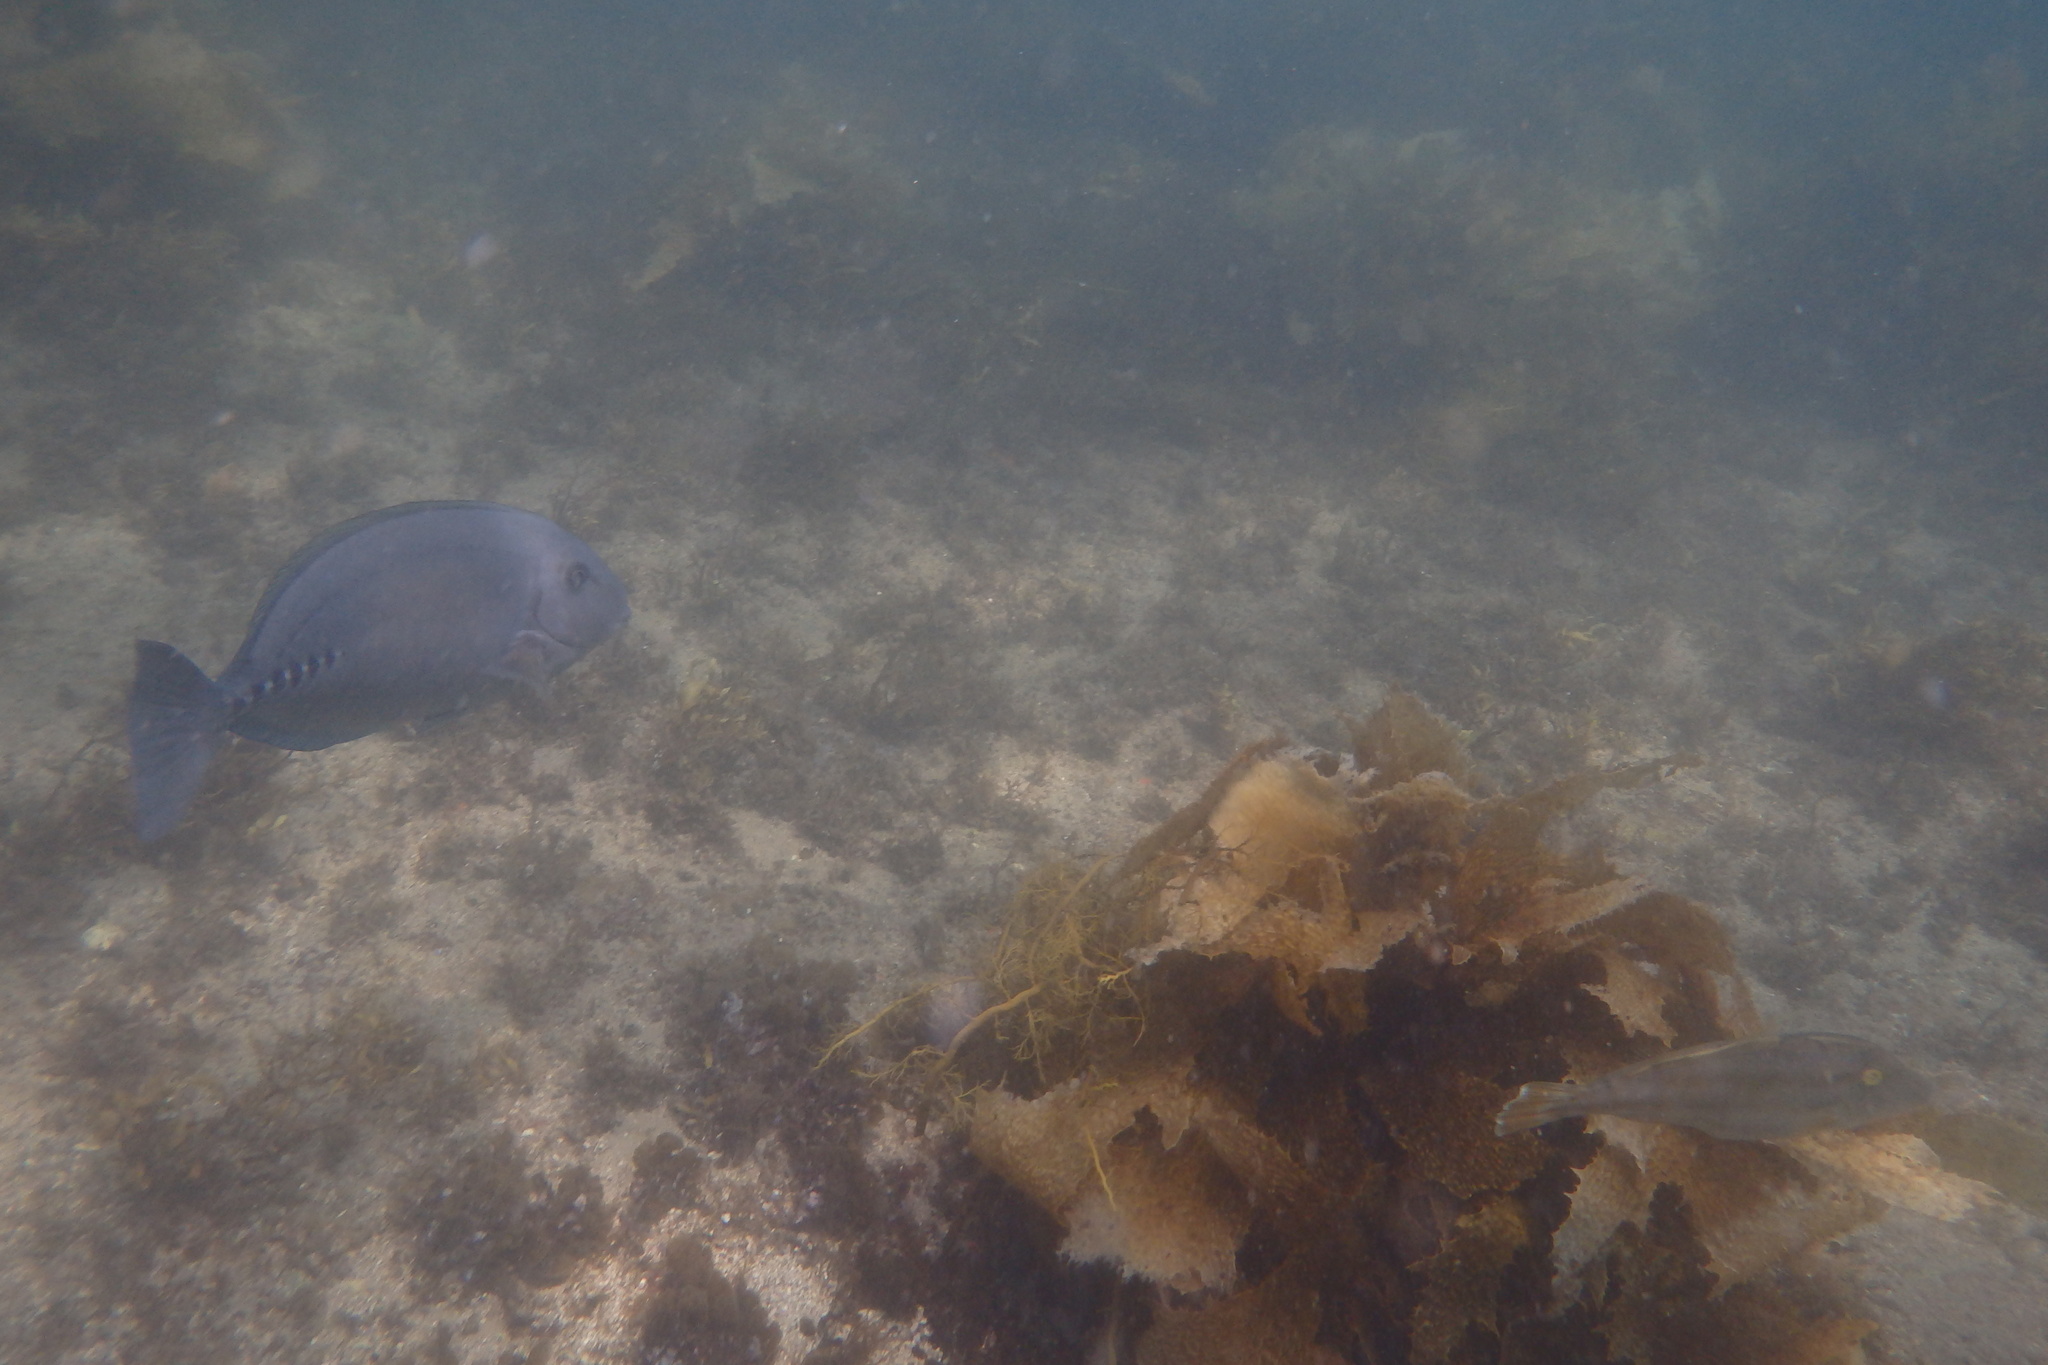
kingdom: Animalia
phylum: Chordata
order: Perciformes
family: Acanthuridae
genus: Prionurus
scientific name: Prionurus microlepidotus
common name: Sixplate sawtail
